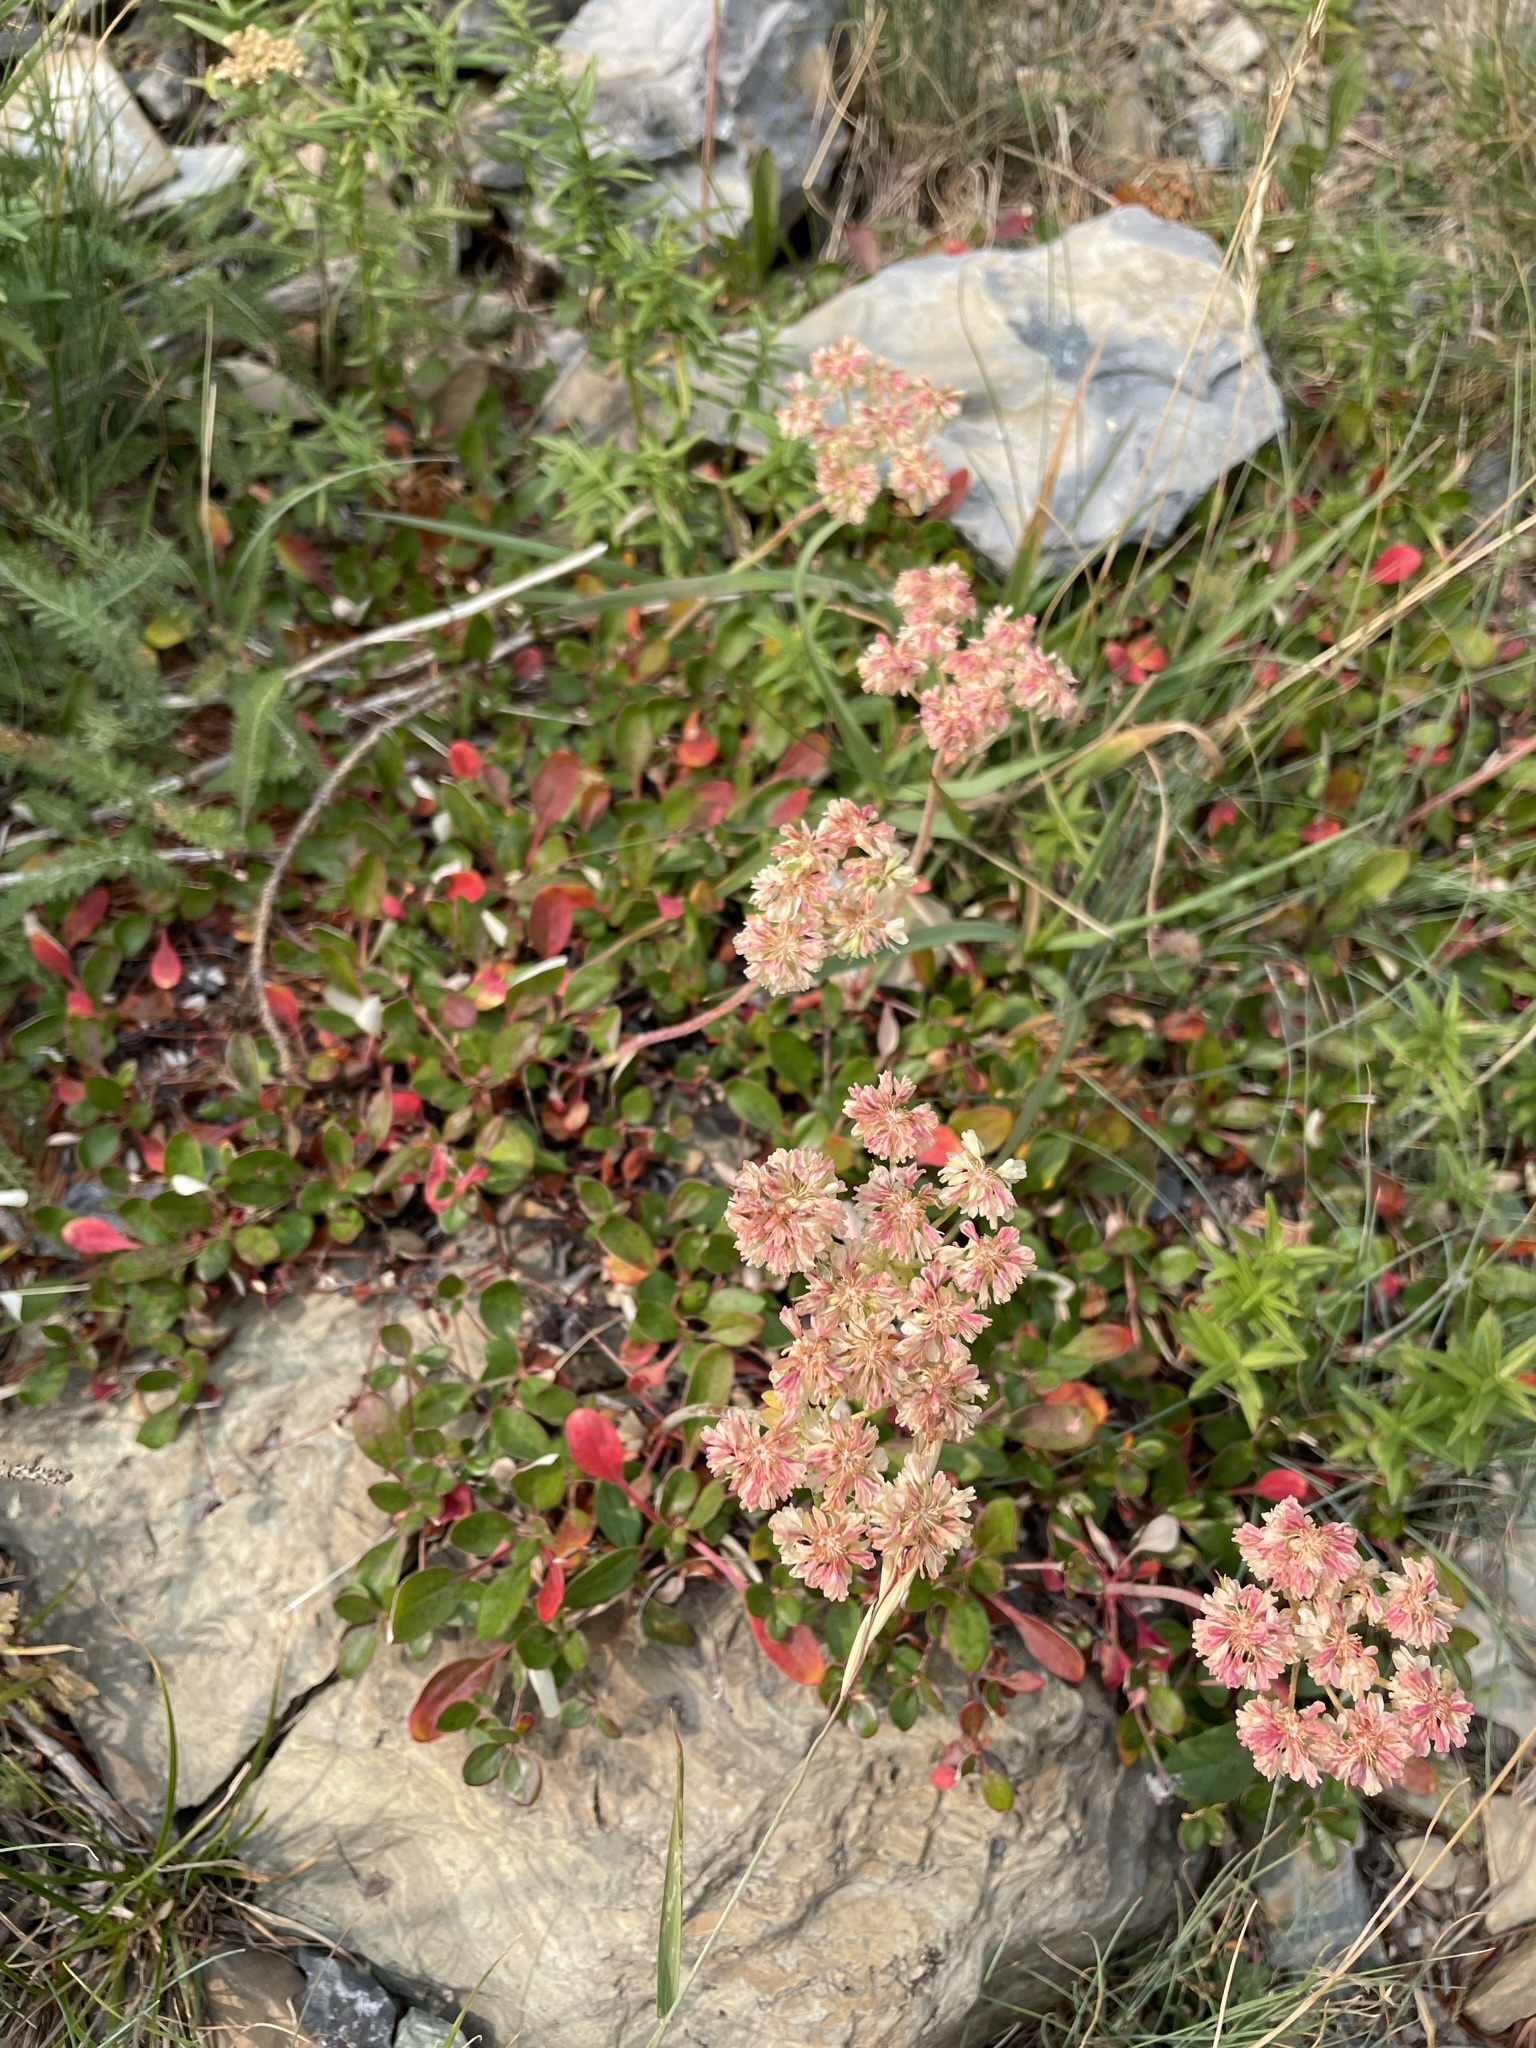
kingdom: Plantae
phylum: Tracheophyta
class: Magnoliopsida
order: Caryophyllales
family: Polygonaceae
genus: Eriogonum
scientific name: Eriogonum umbellatum
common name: Sulfur-buckwheat
